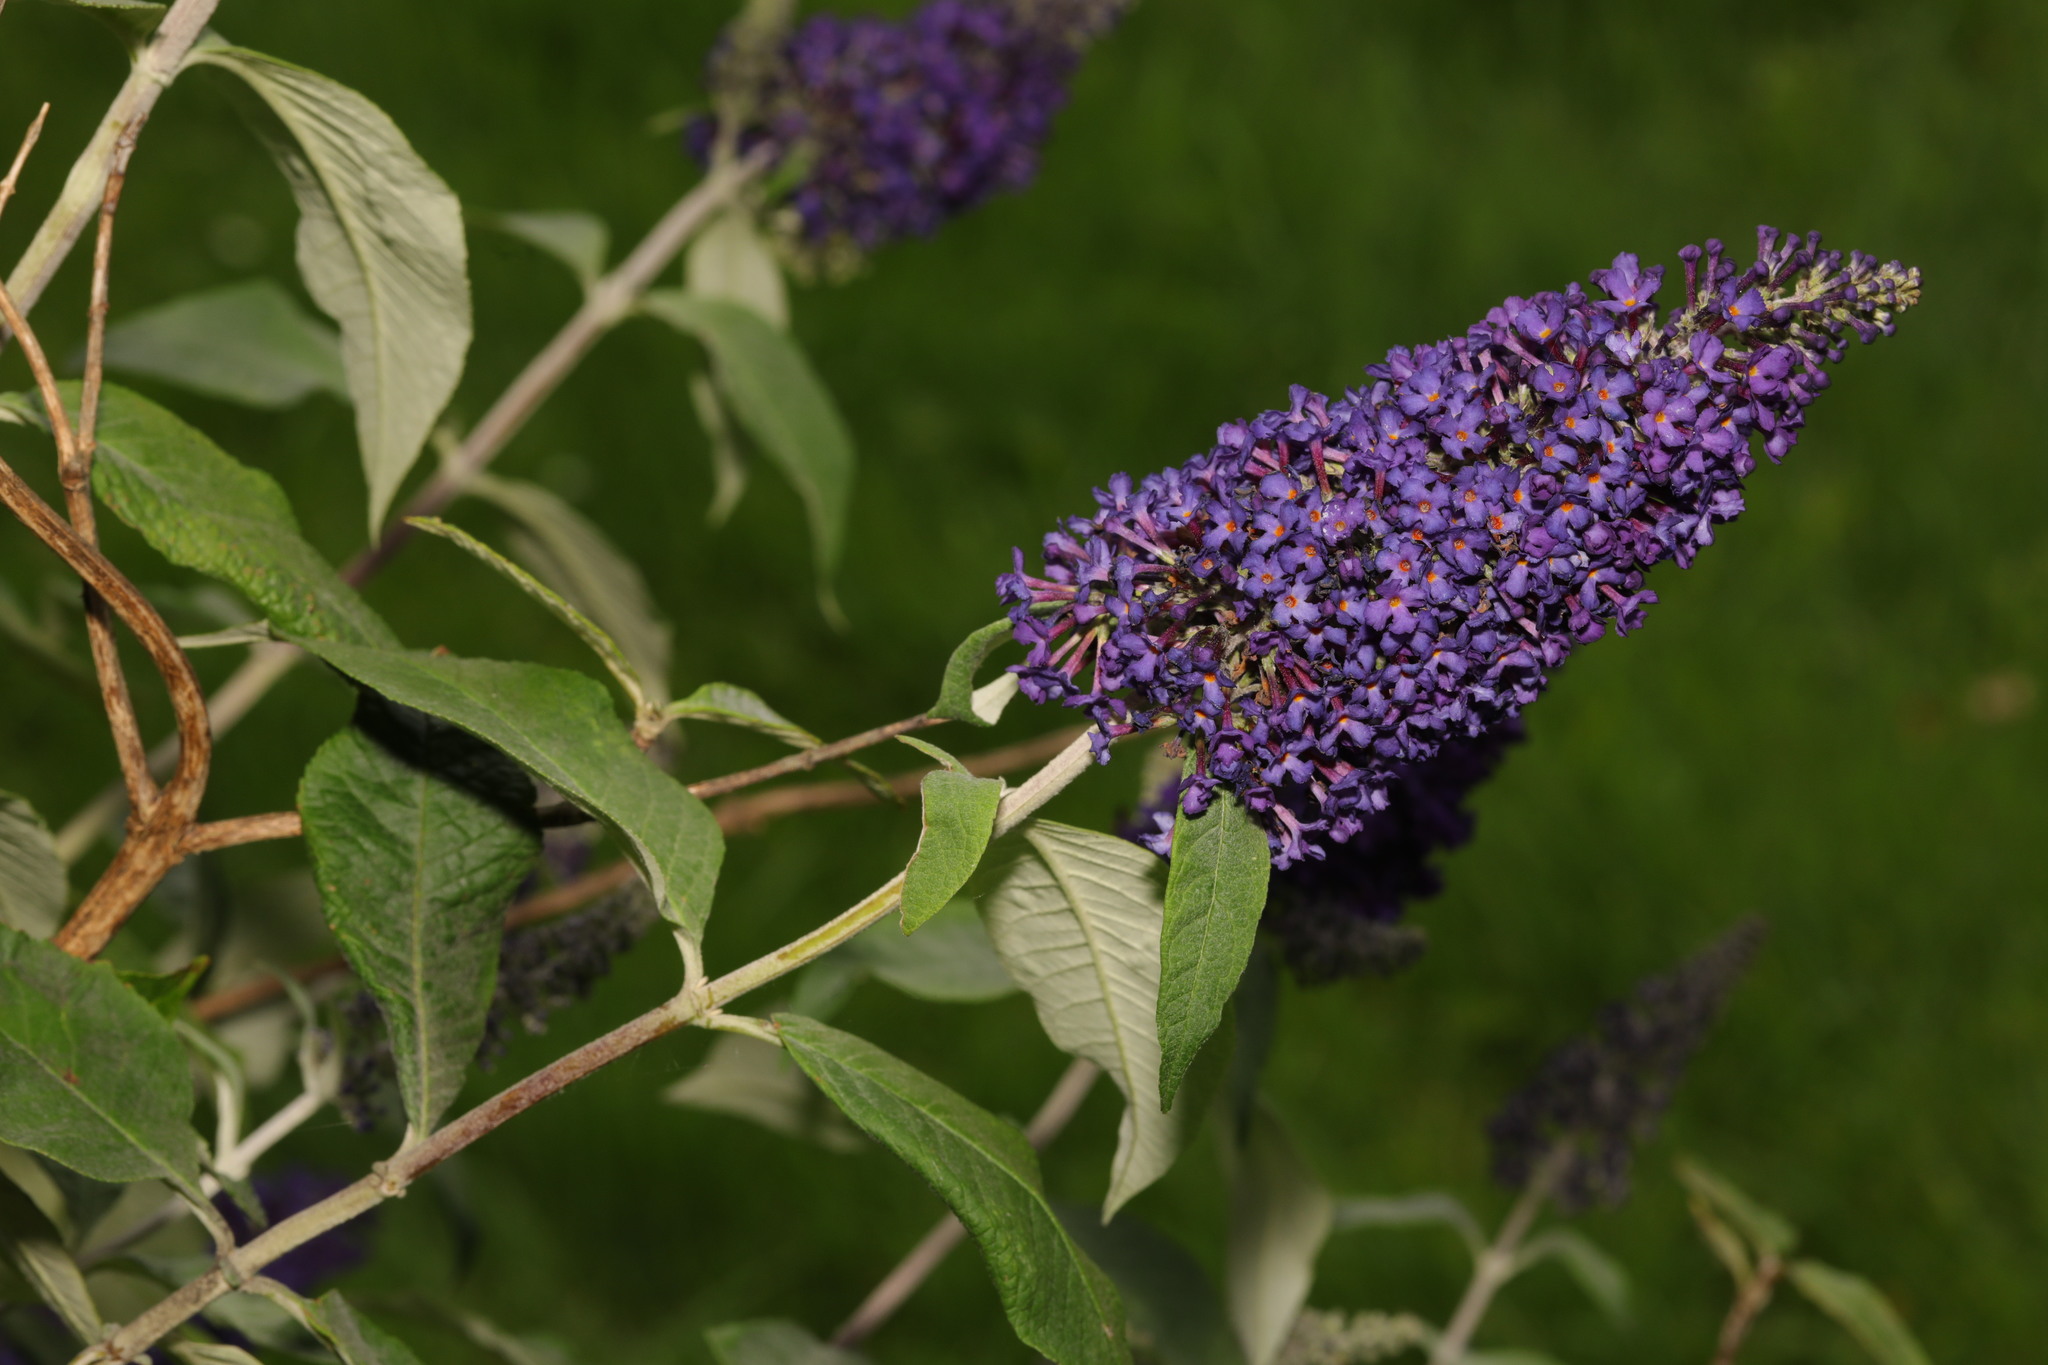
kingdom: Plantae
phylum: Tracheophyta
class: Magnoliopsida
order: Lamiales
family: Scrophulariaceae
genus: Buddleja
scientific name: Buddleja davidii
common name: Butterfly-bush
